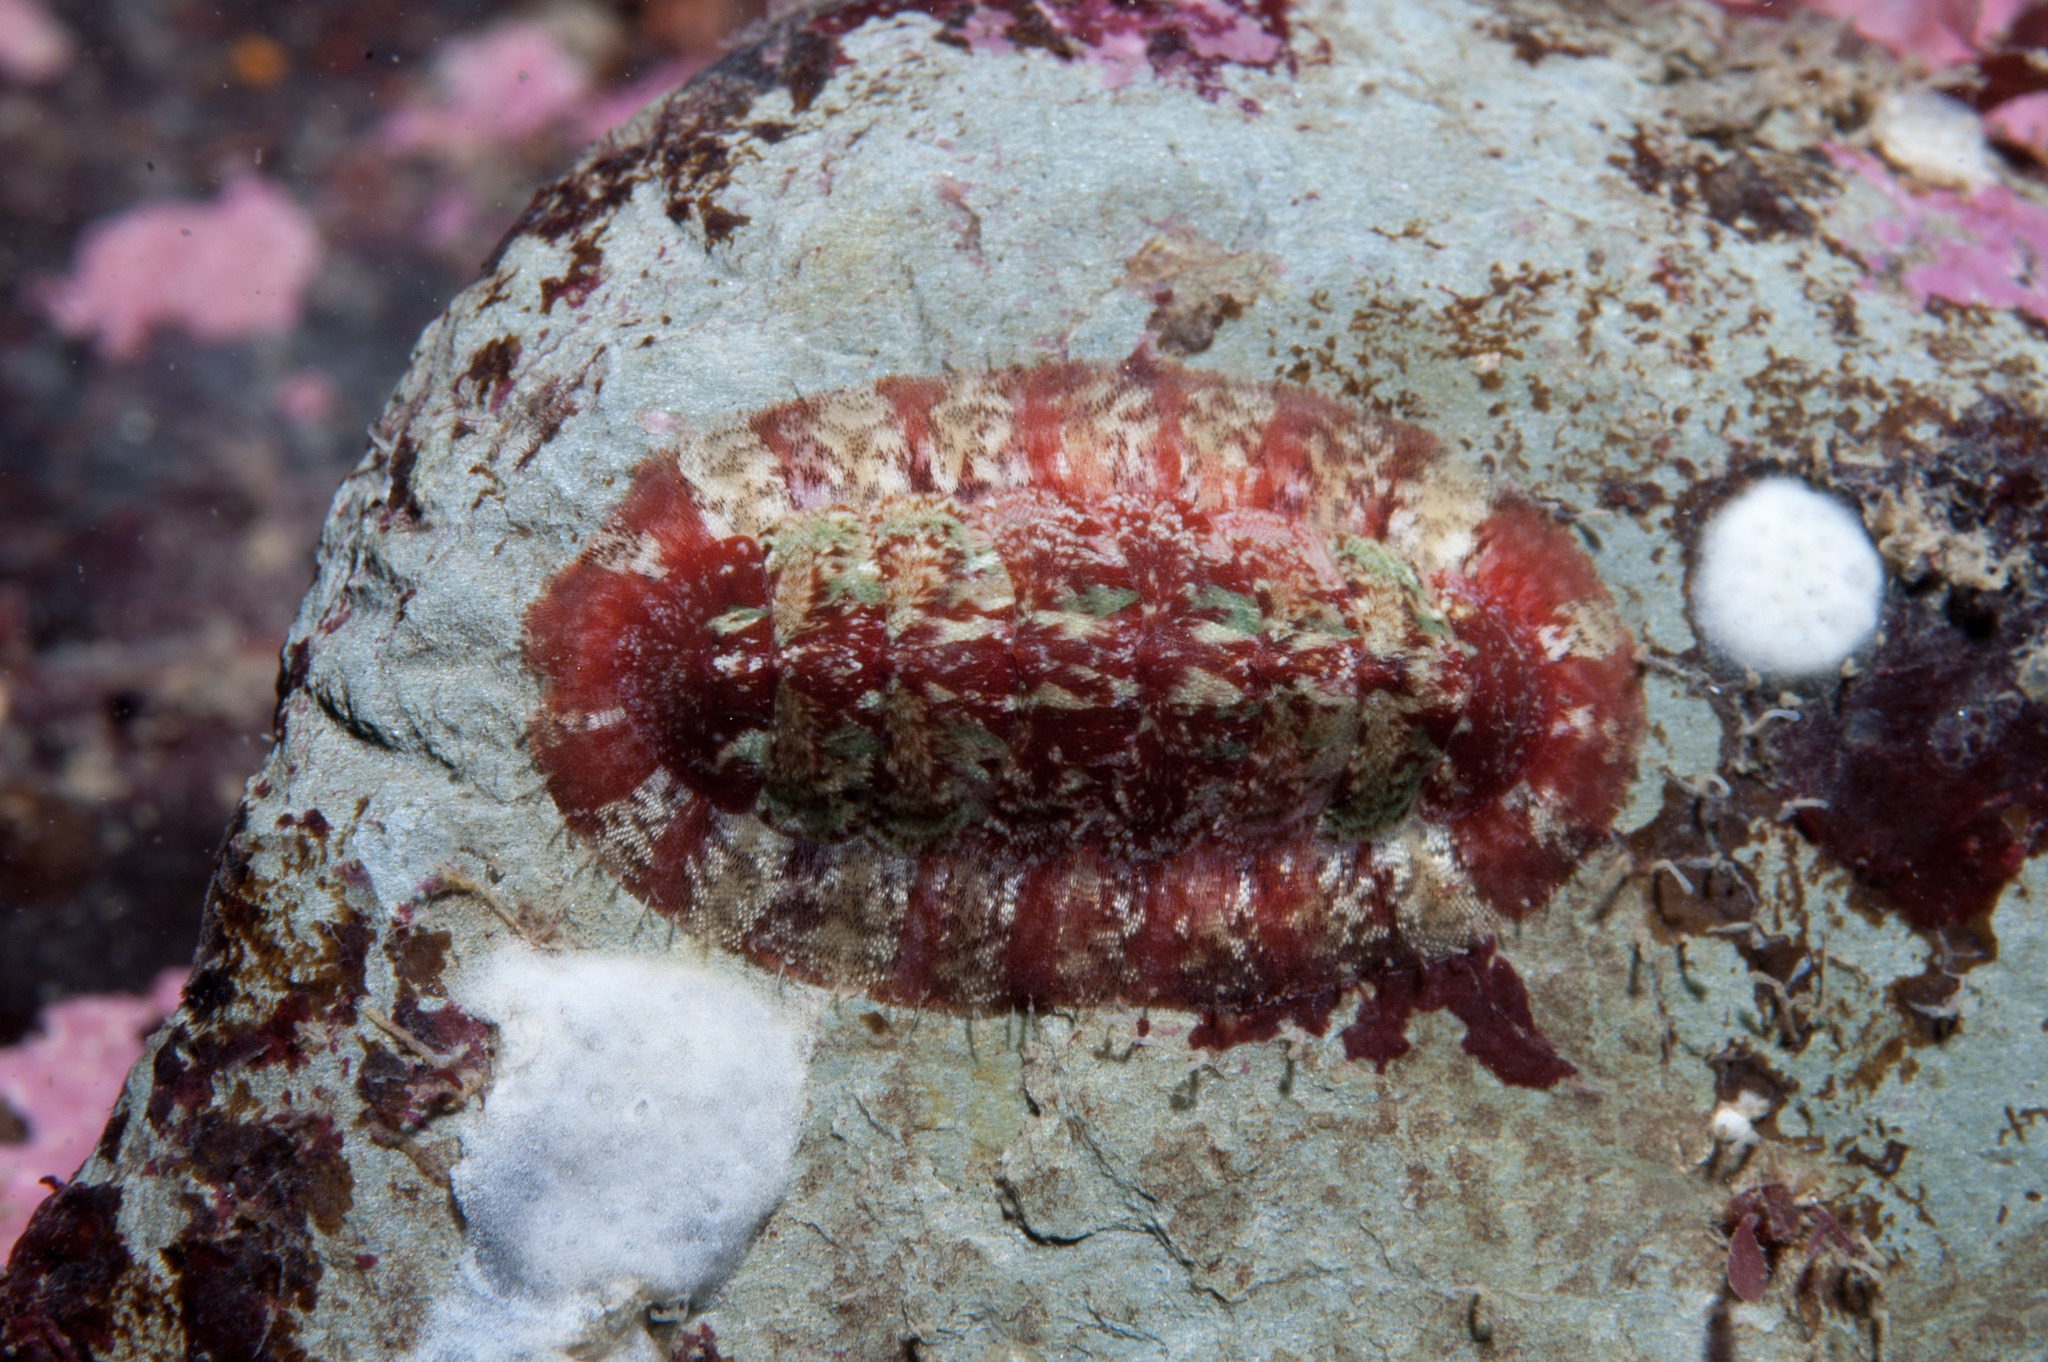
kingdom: Animalia
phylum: Mollusca
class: Polyplacophora
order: Callochitonida
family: Callochitonidae
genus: Callochiton
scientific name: Callochiton septemvalvis
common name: Sevenplated chiton
